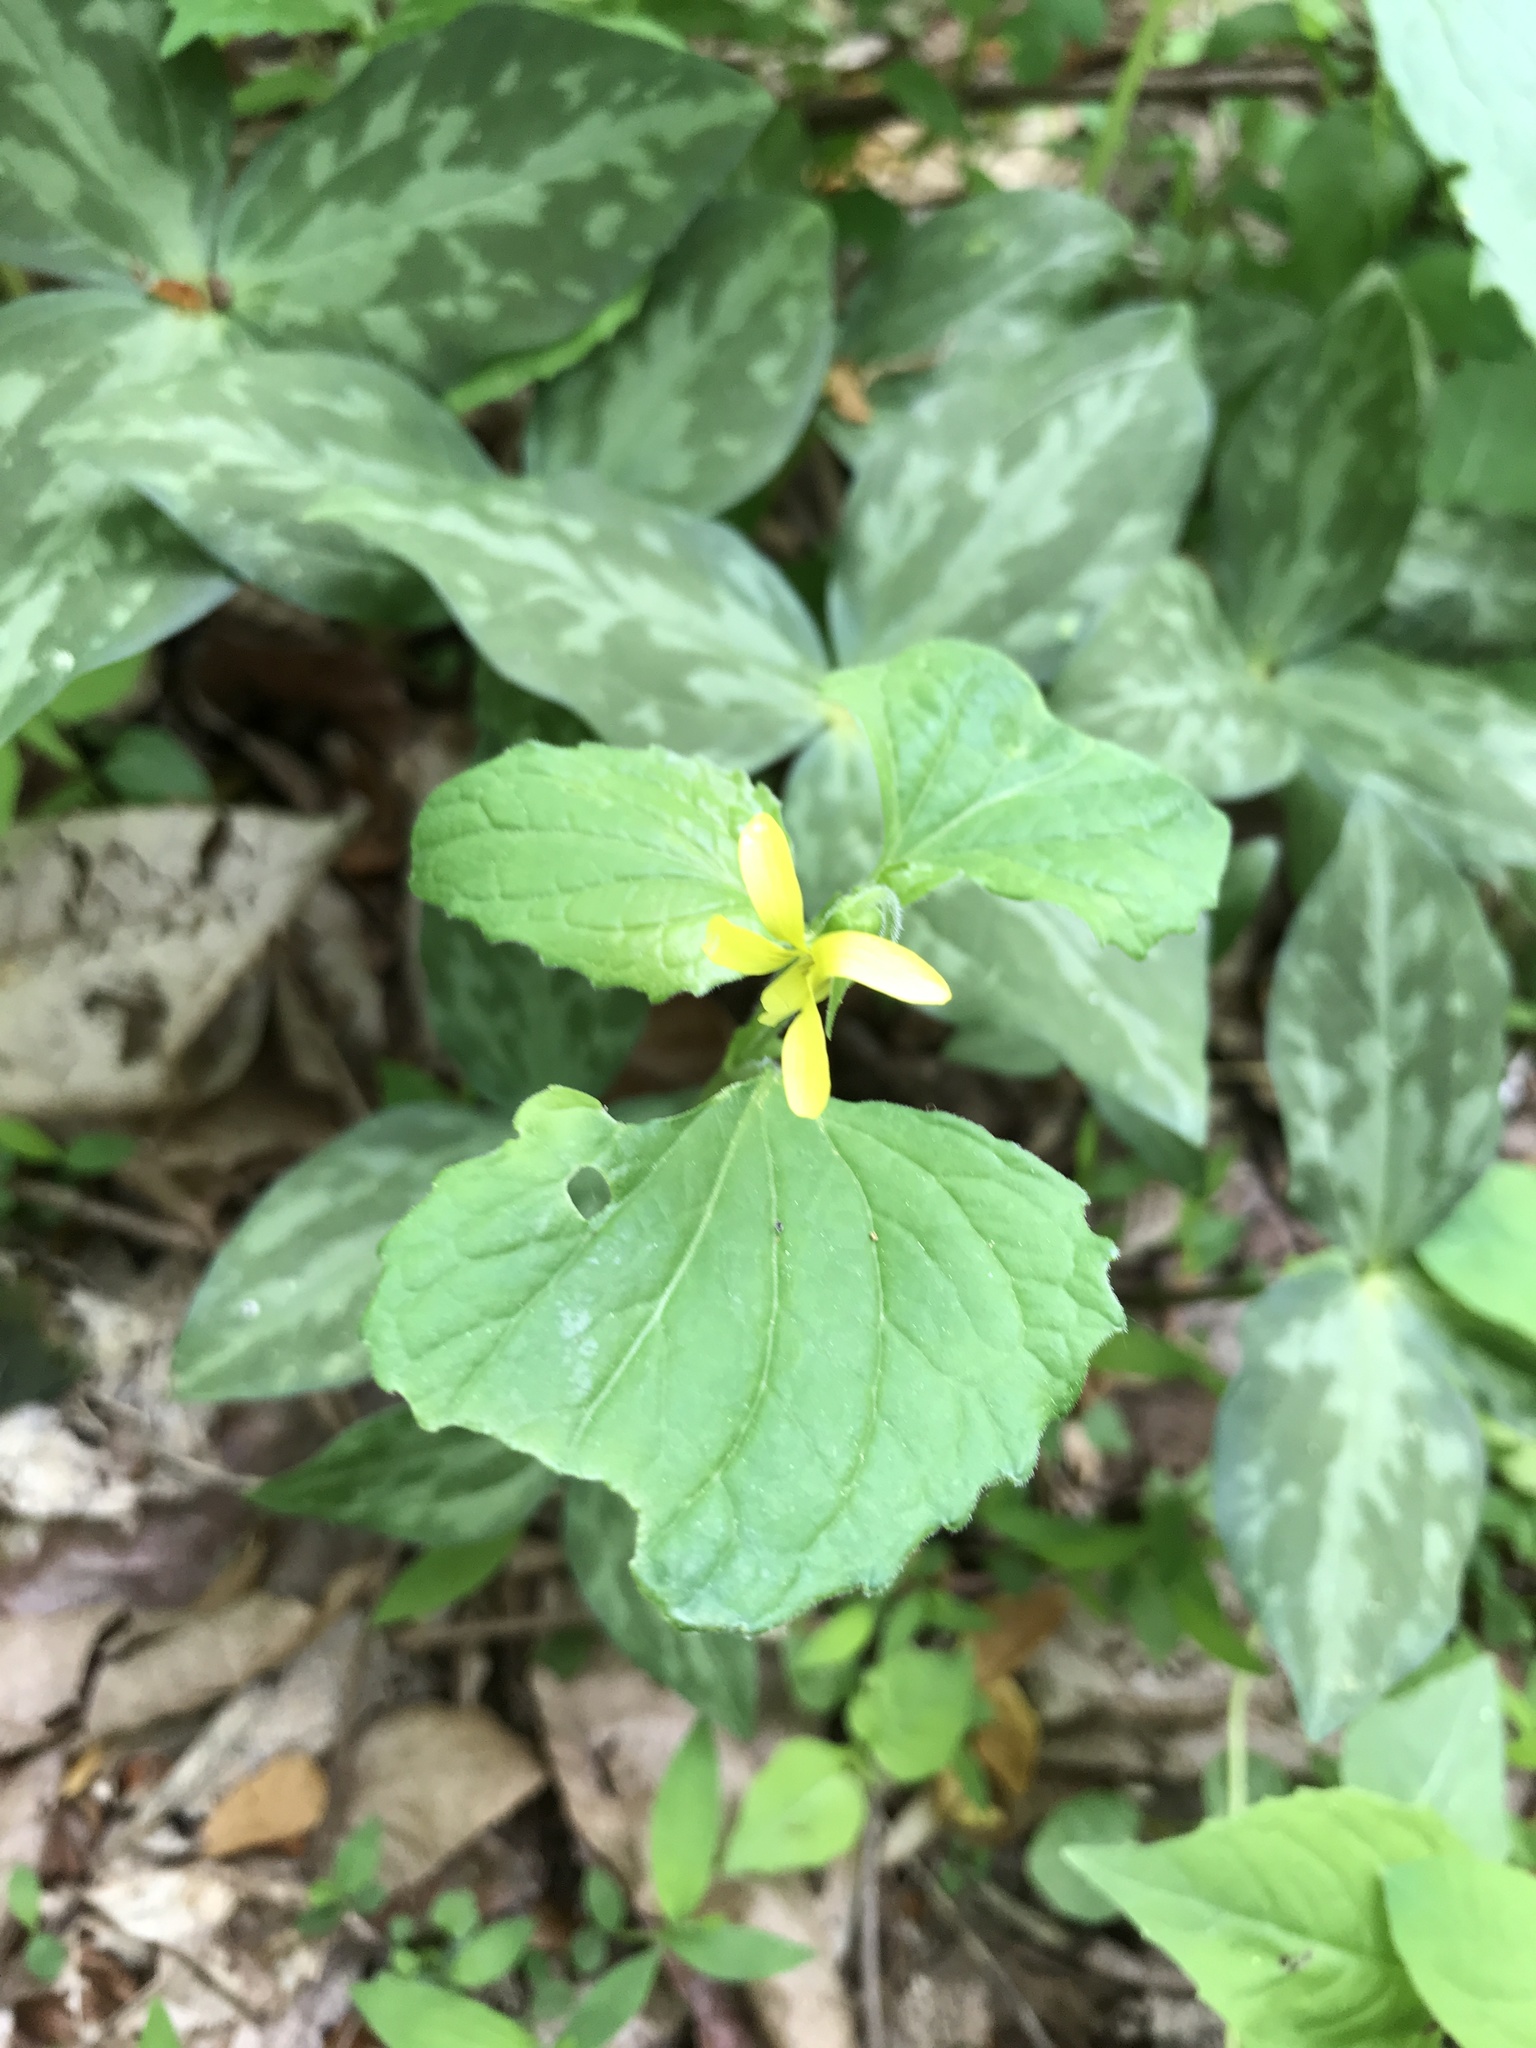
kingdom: Plantae
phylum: Tracheophyta
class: Magnoliopsida
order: Malpighiales
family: Violaceae
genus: Viola
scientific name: Viola eriocarpa
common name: Smooth yellow violet
